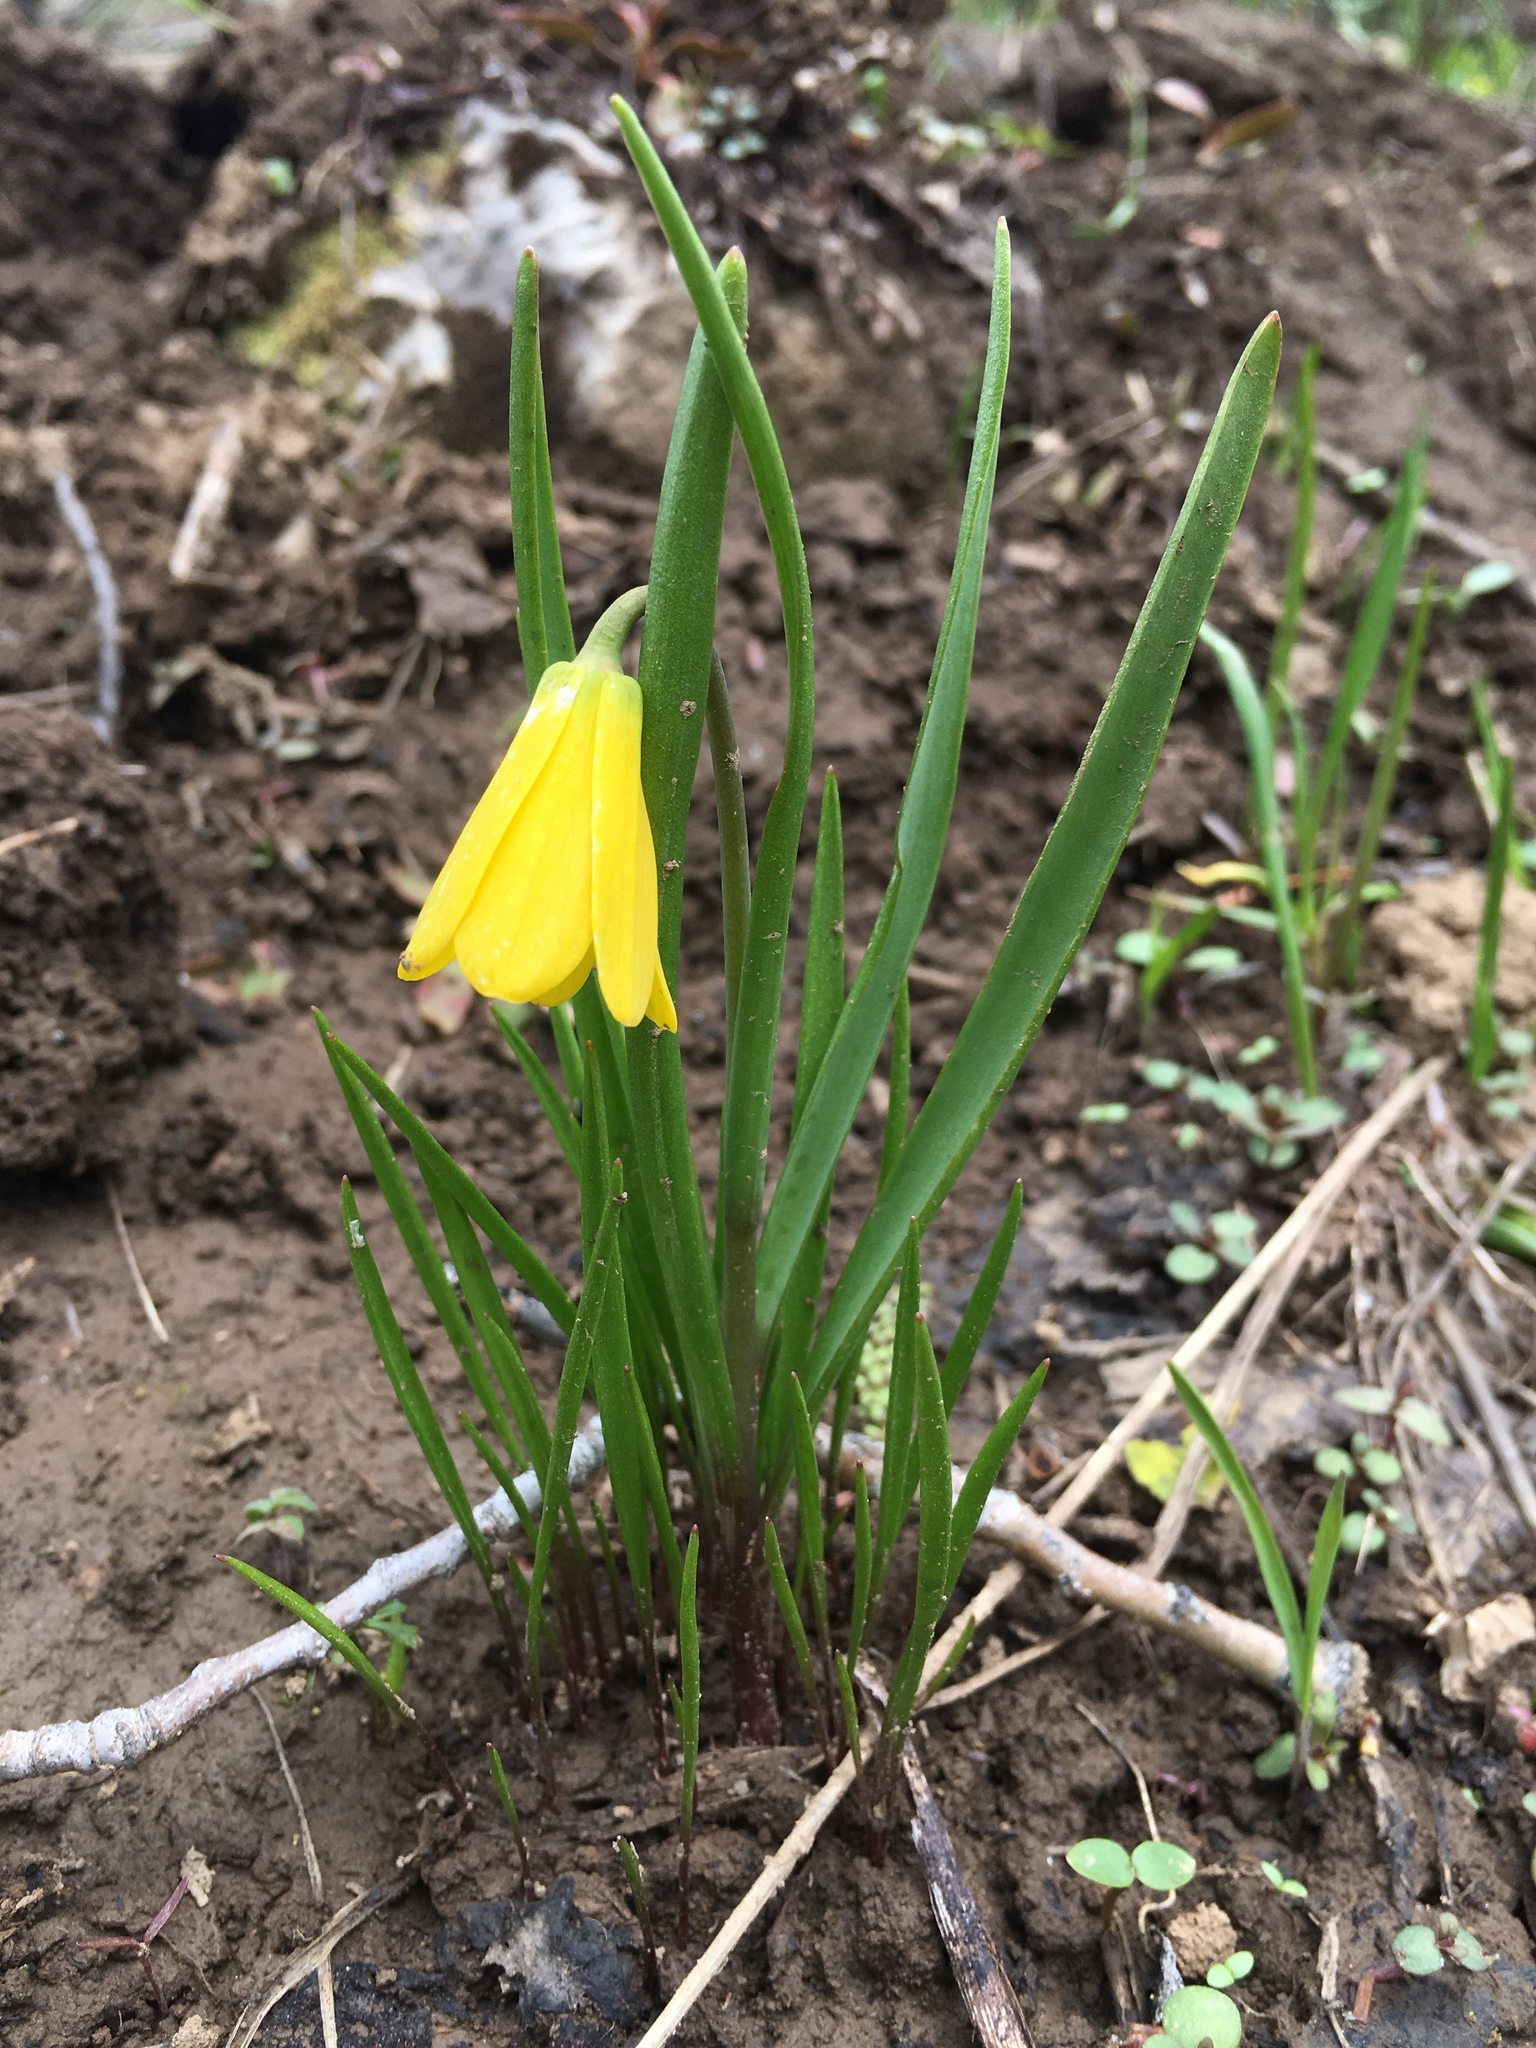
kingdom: Plantae
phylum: Tracheophyta
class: Liliopsida
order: Liliales
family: Liliaceae
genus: Fritillaria
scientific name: Fritillaria pudica
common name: Yellow fritillary
